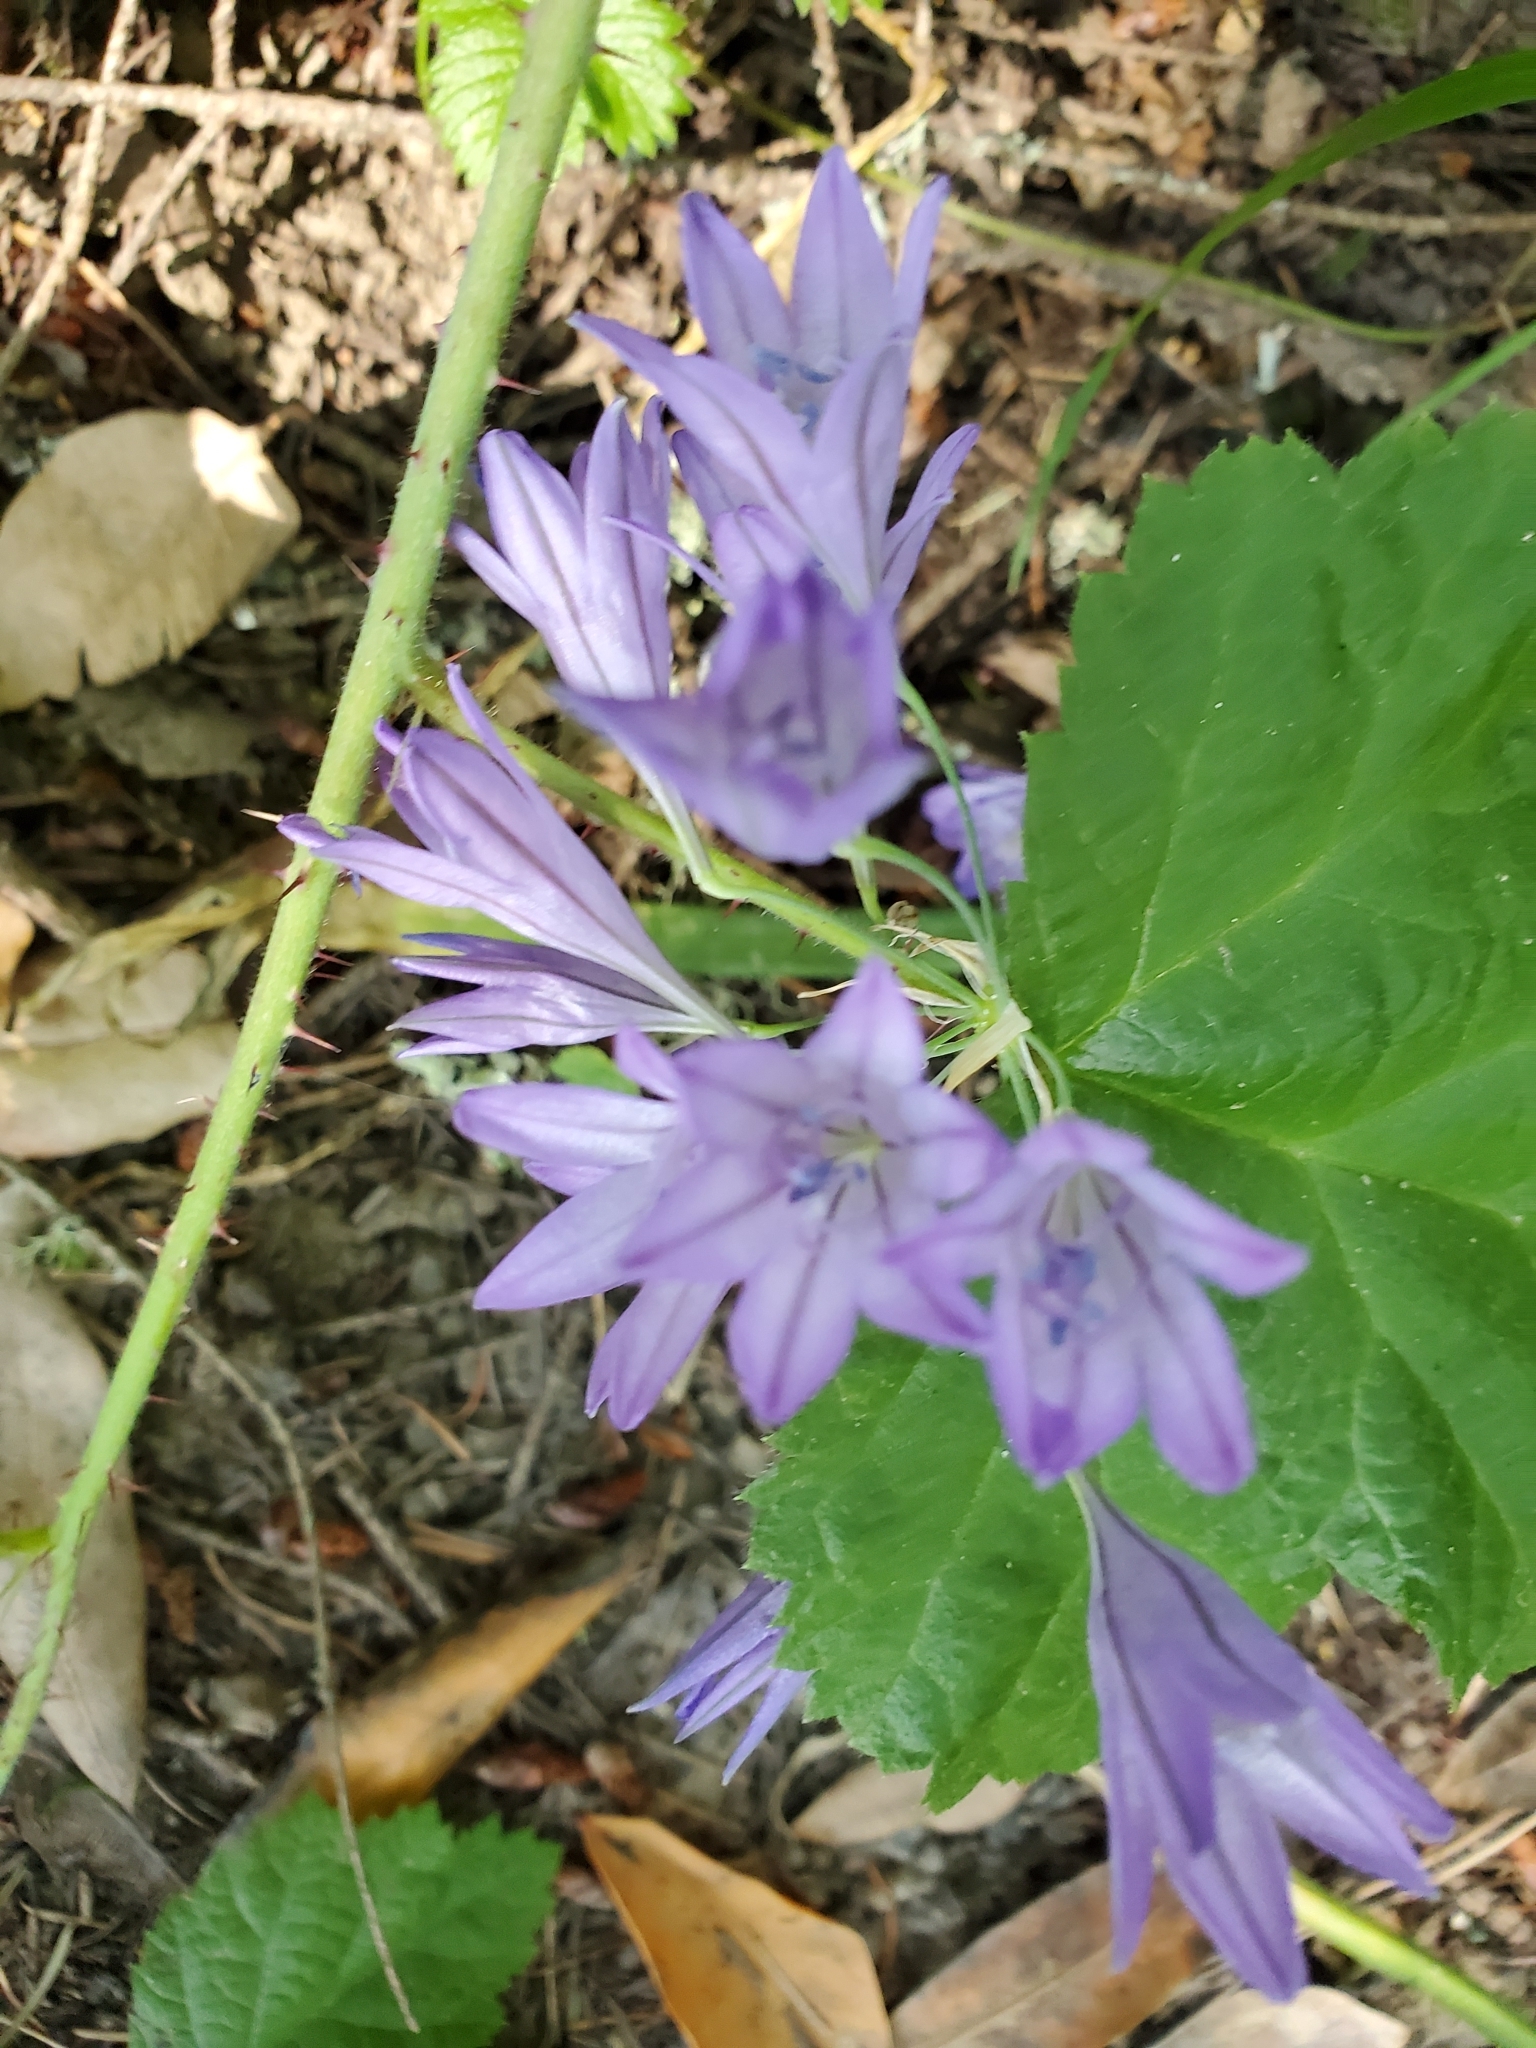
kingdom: Plantae
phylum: Tracheophyta
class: Liliopsida
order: Asparagales
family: Asparagaceae
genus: Triteleia
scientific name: Triteleia laxa
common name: Triplet-lily
